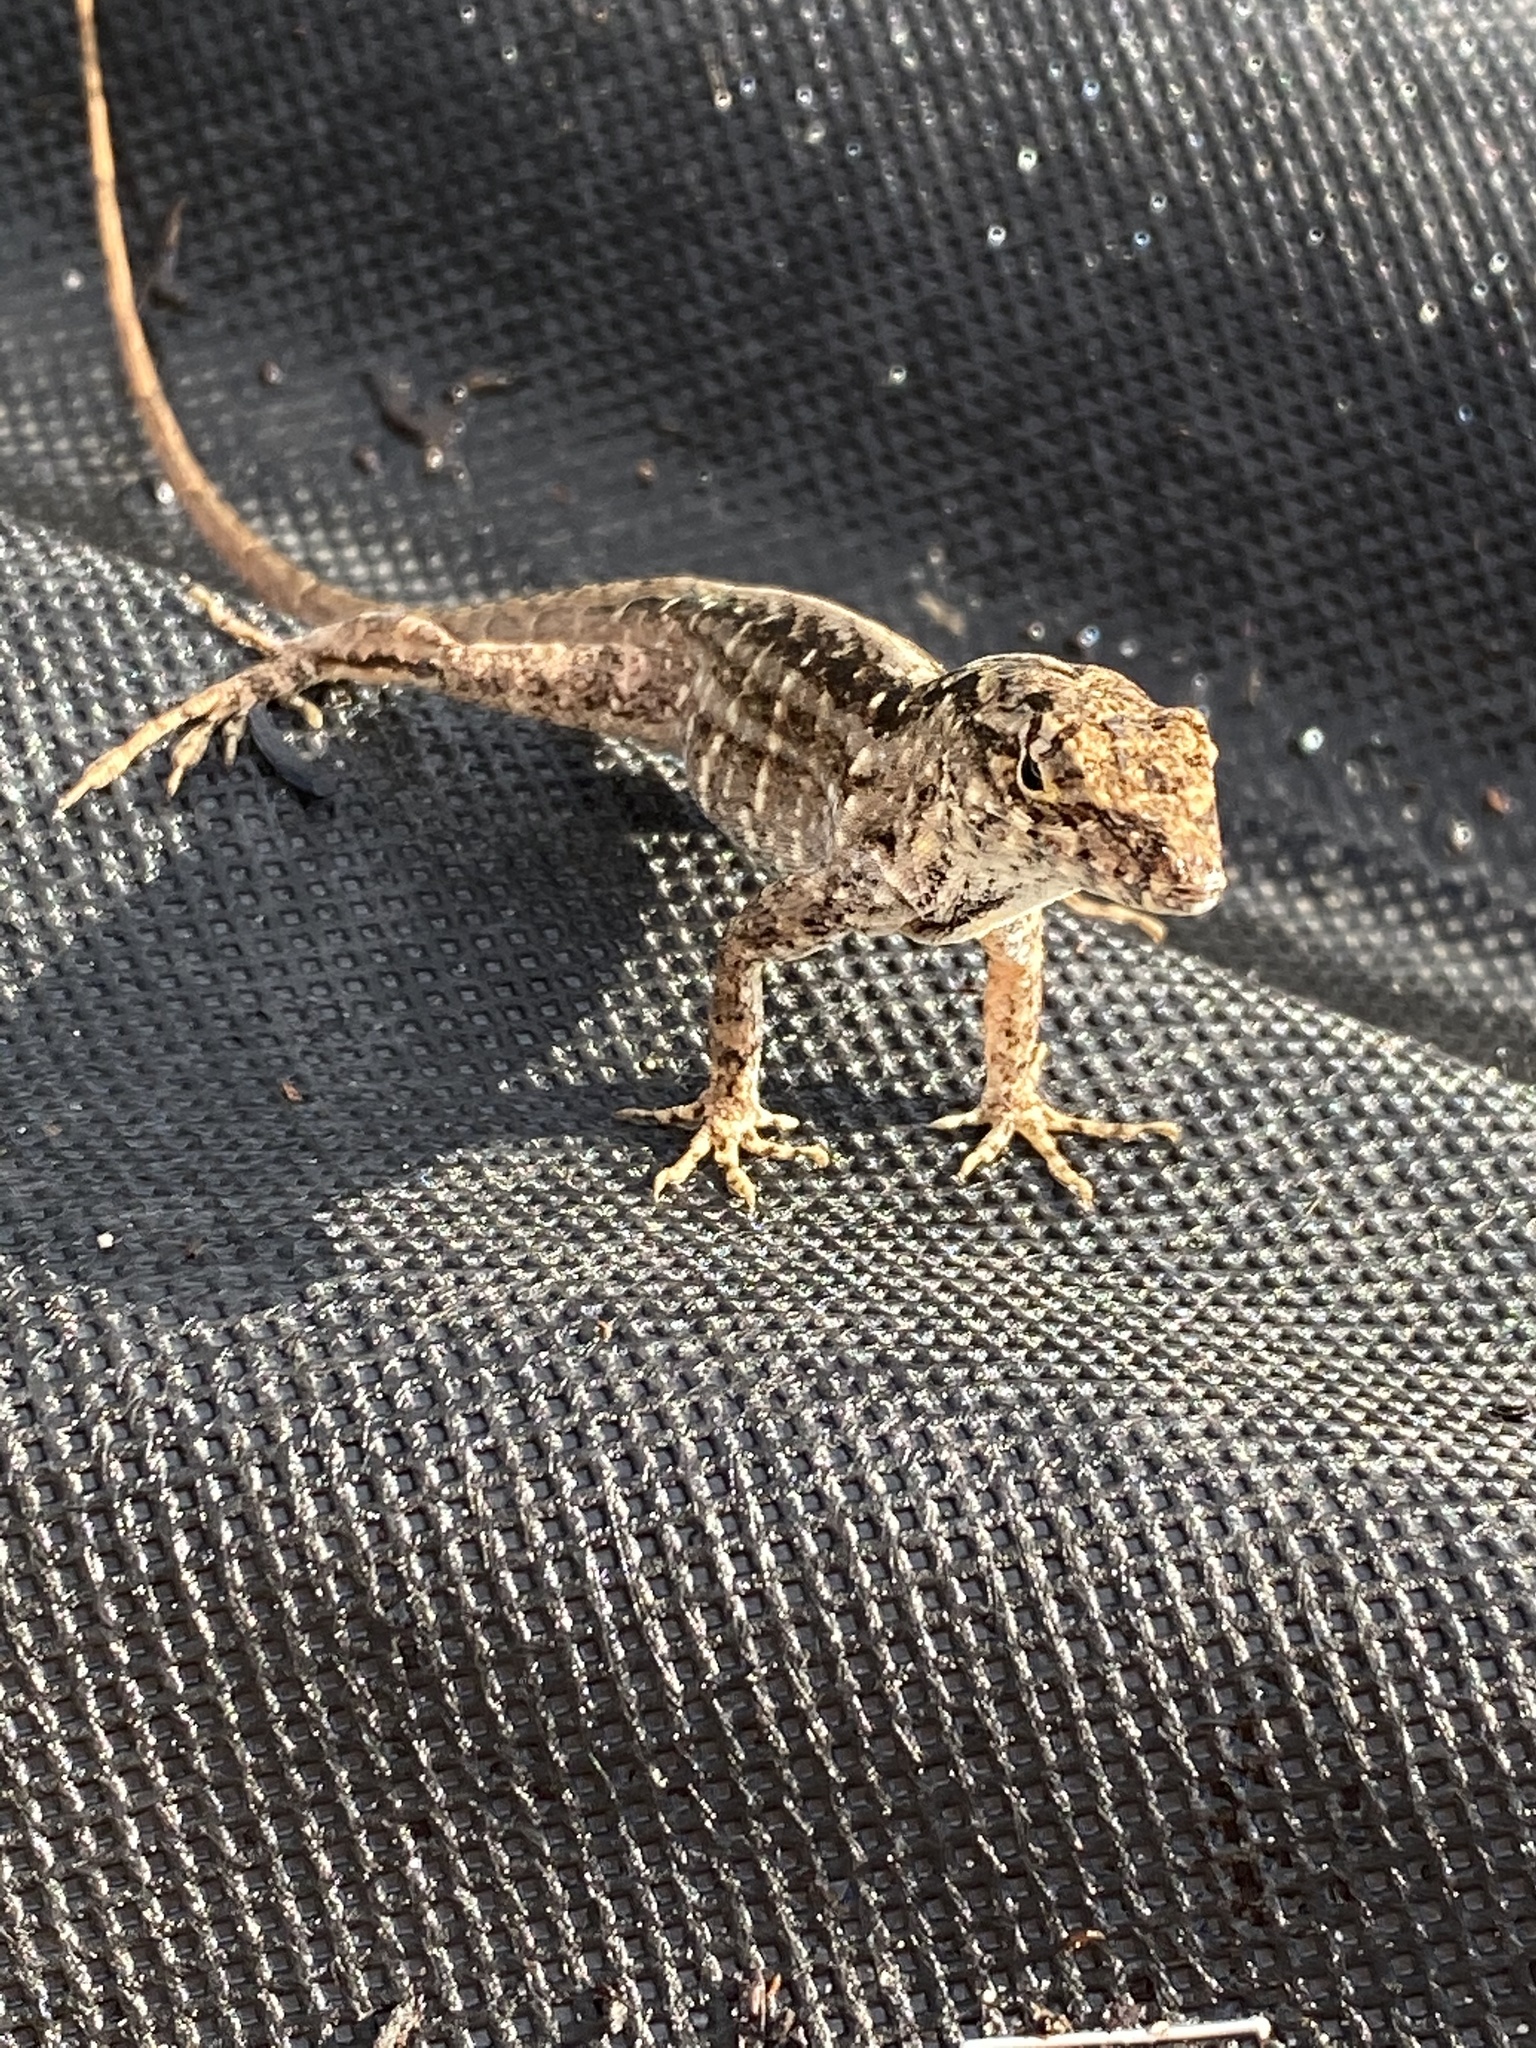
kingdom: Animalia
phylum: Chordata
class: Squamata
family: Dactyloidae
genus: Anolis
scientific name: Anolis sagrei
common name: Brown anole
